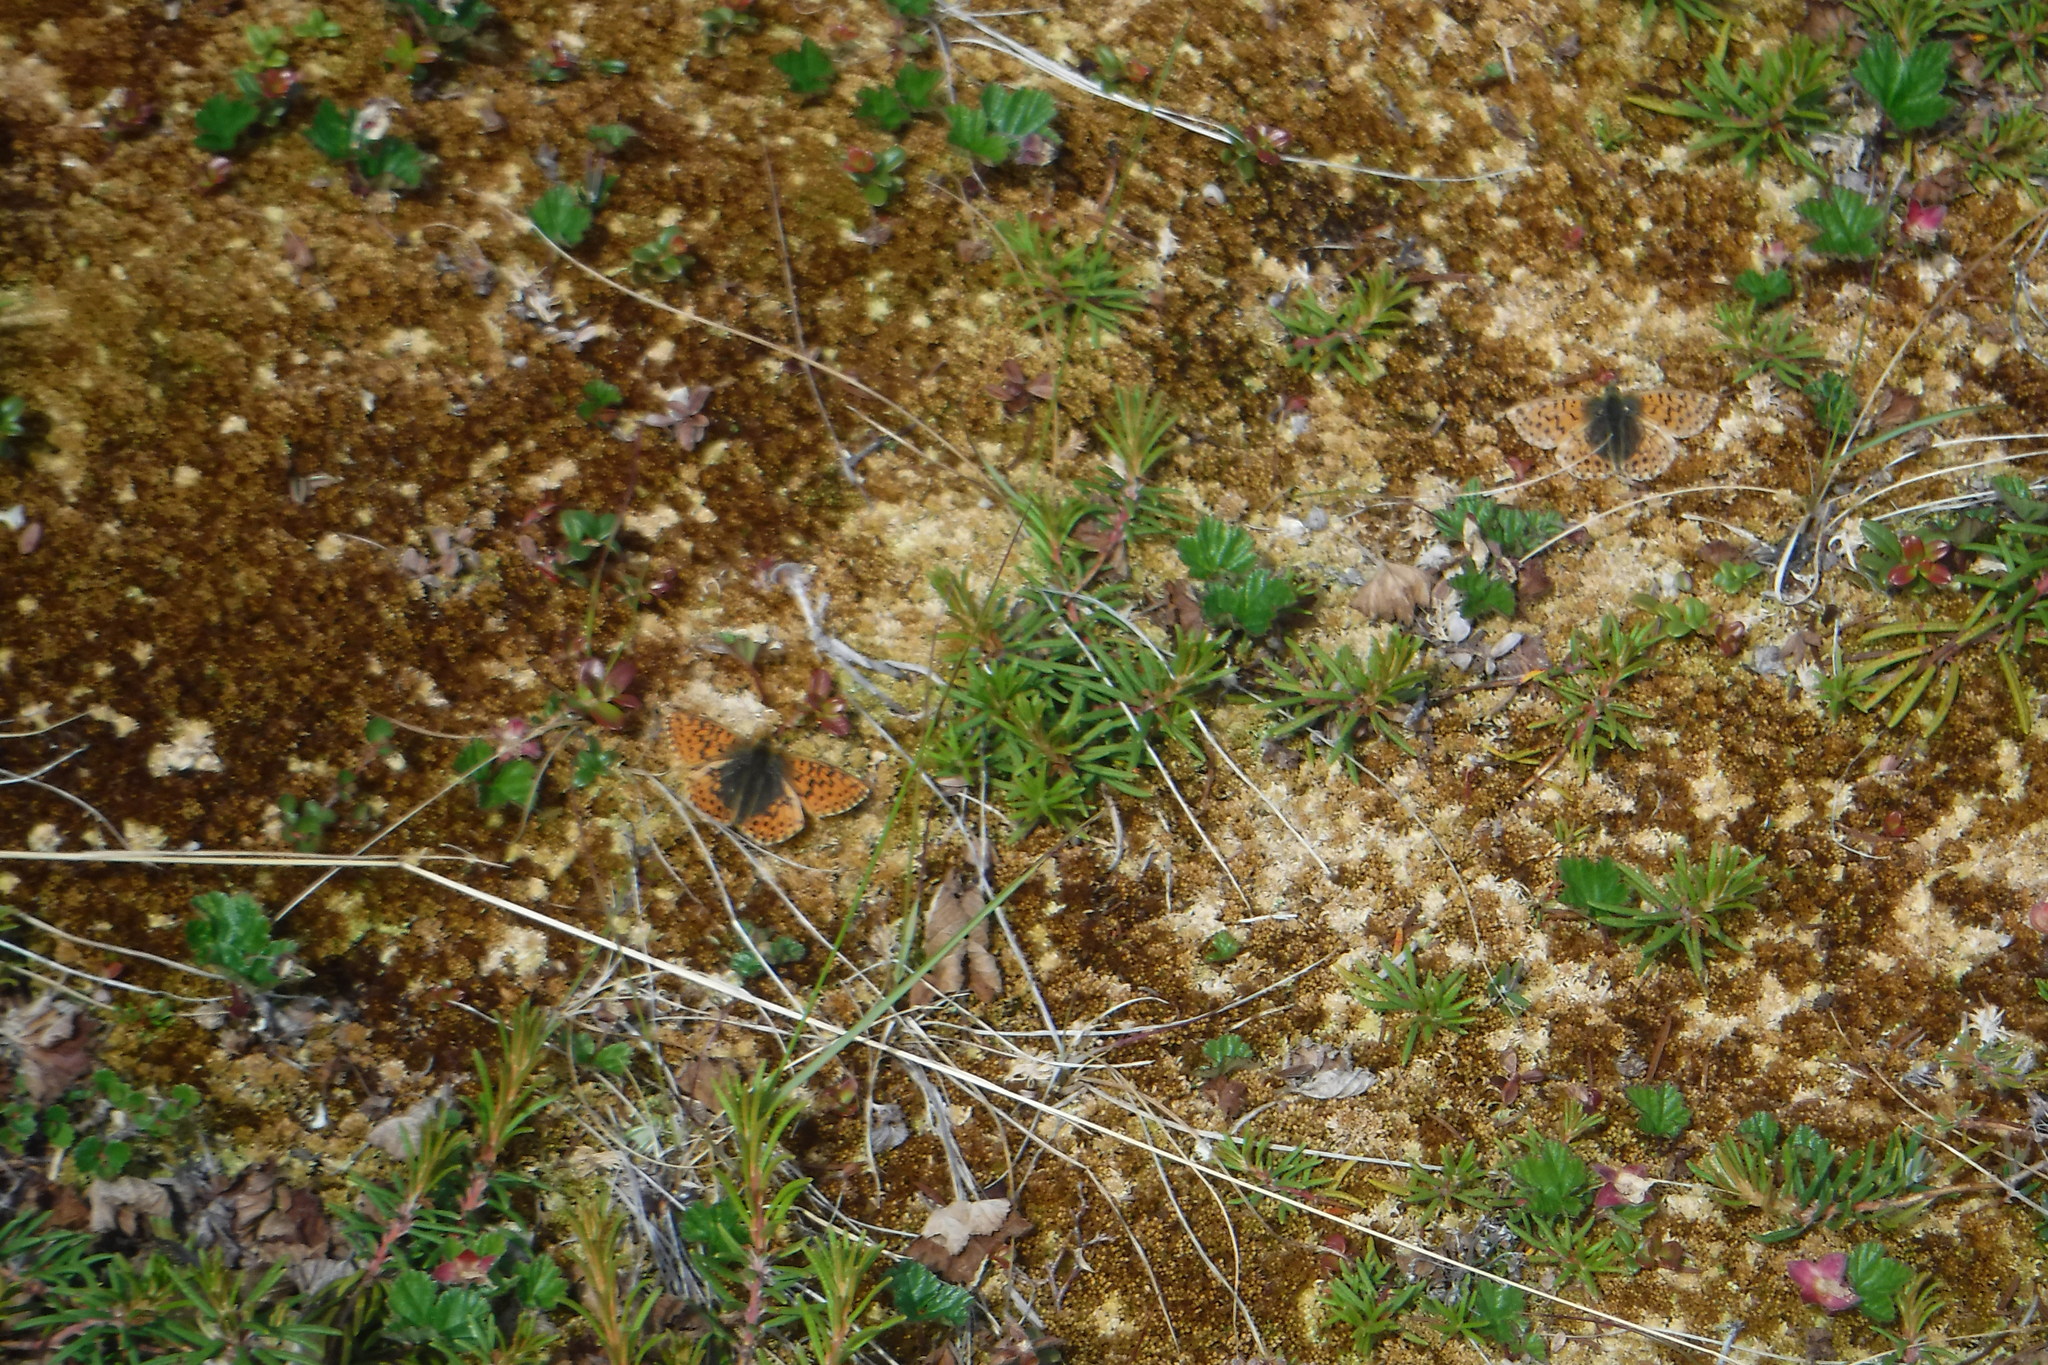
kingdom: Animalia
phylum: Arthropoda
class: Insecta
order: Lepidoptera
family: Nymphalidae
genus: Boloria
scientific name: Boloria alaskensis
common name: Alaskan fritillary
